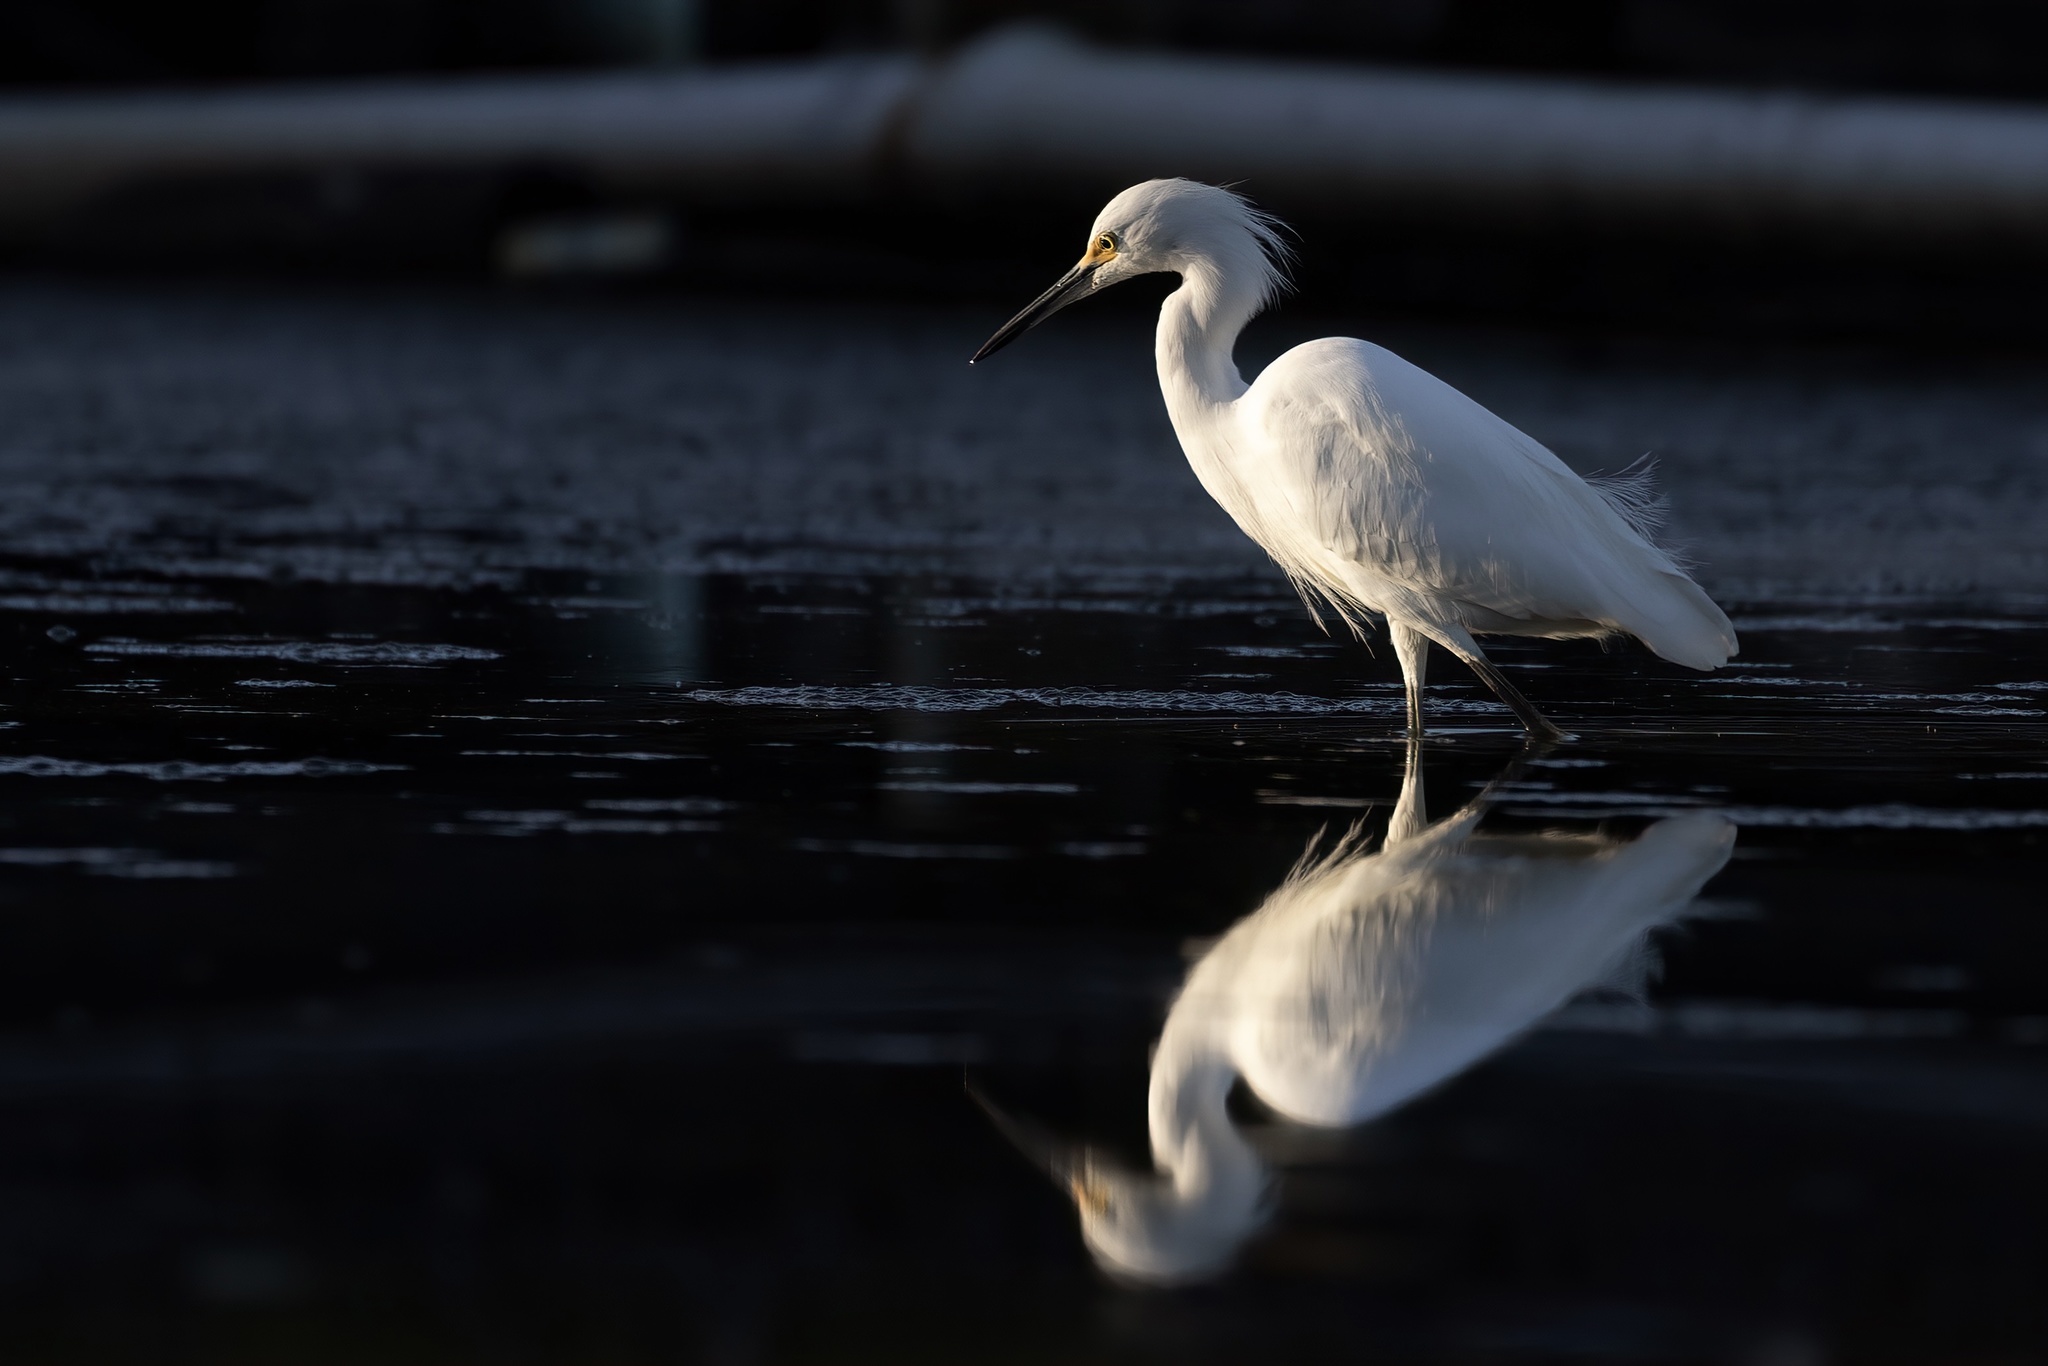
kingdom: Animalia
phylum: Chordata
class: Aves
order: Pelecaniformes
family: Ardeidae
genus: Egretta
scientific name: Egretta thula
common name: Snowy egret
